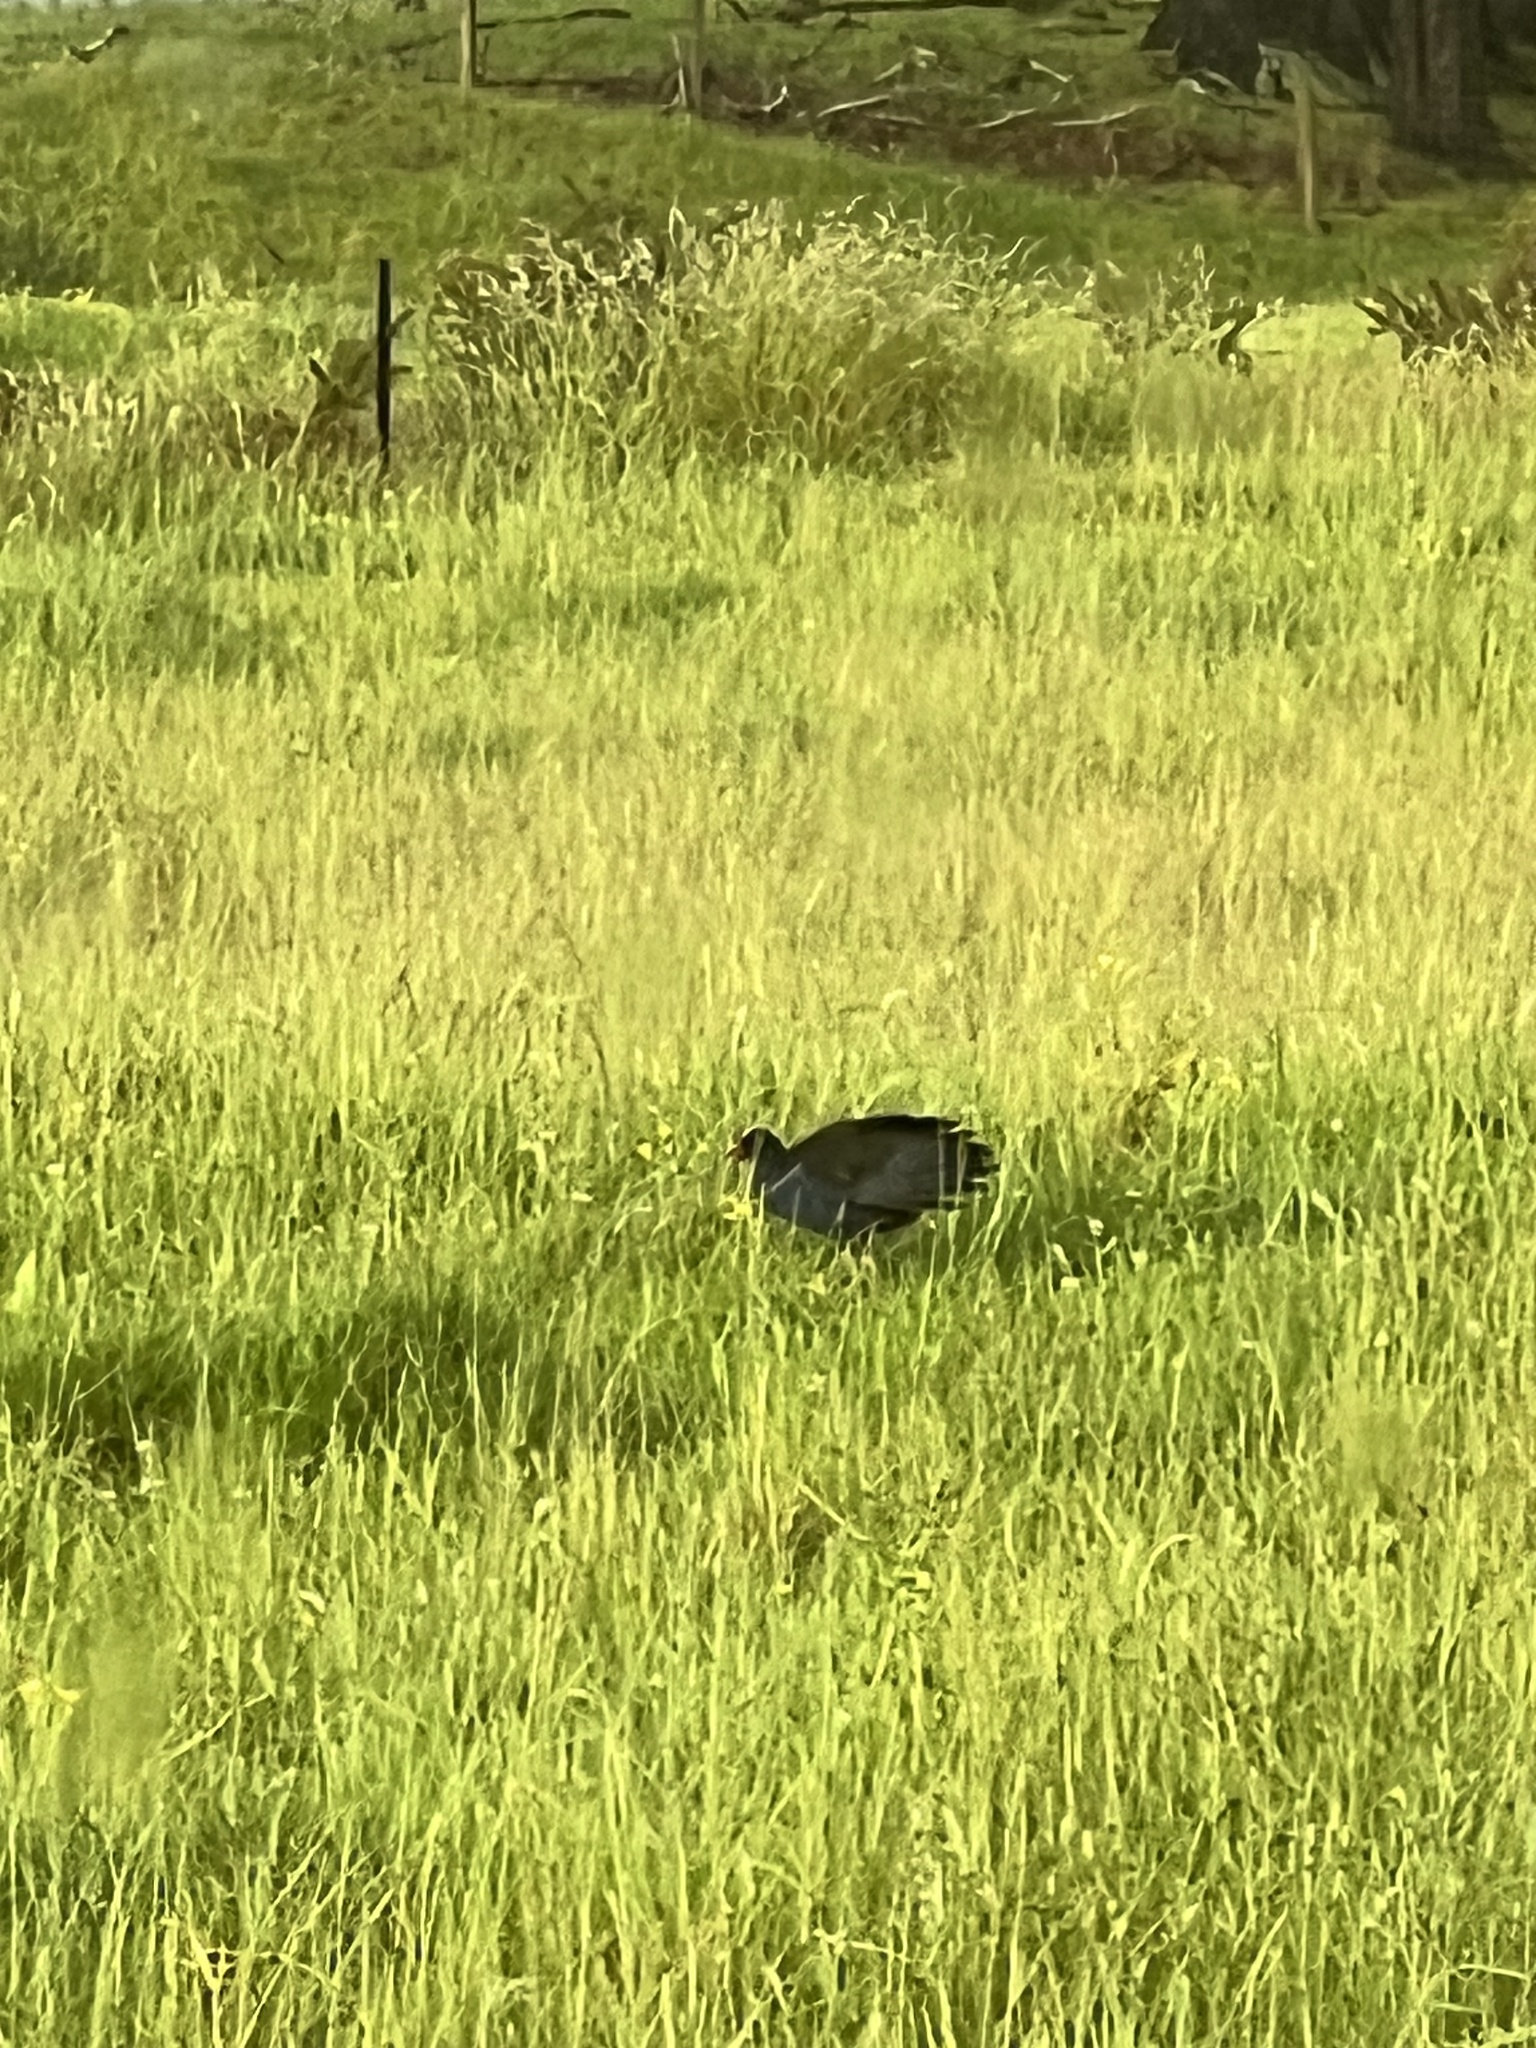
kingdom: Animalia
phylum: Chordata
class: Aves
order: Gruiformes
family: Rallidae
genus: Porphyrio
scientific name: Porphyrio melanotus
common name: Australasian swamphen
